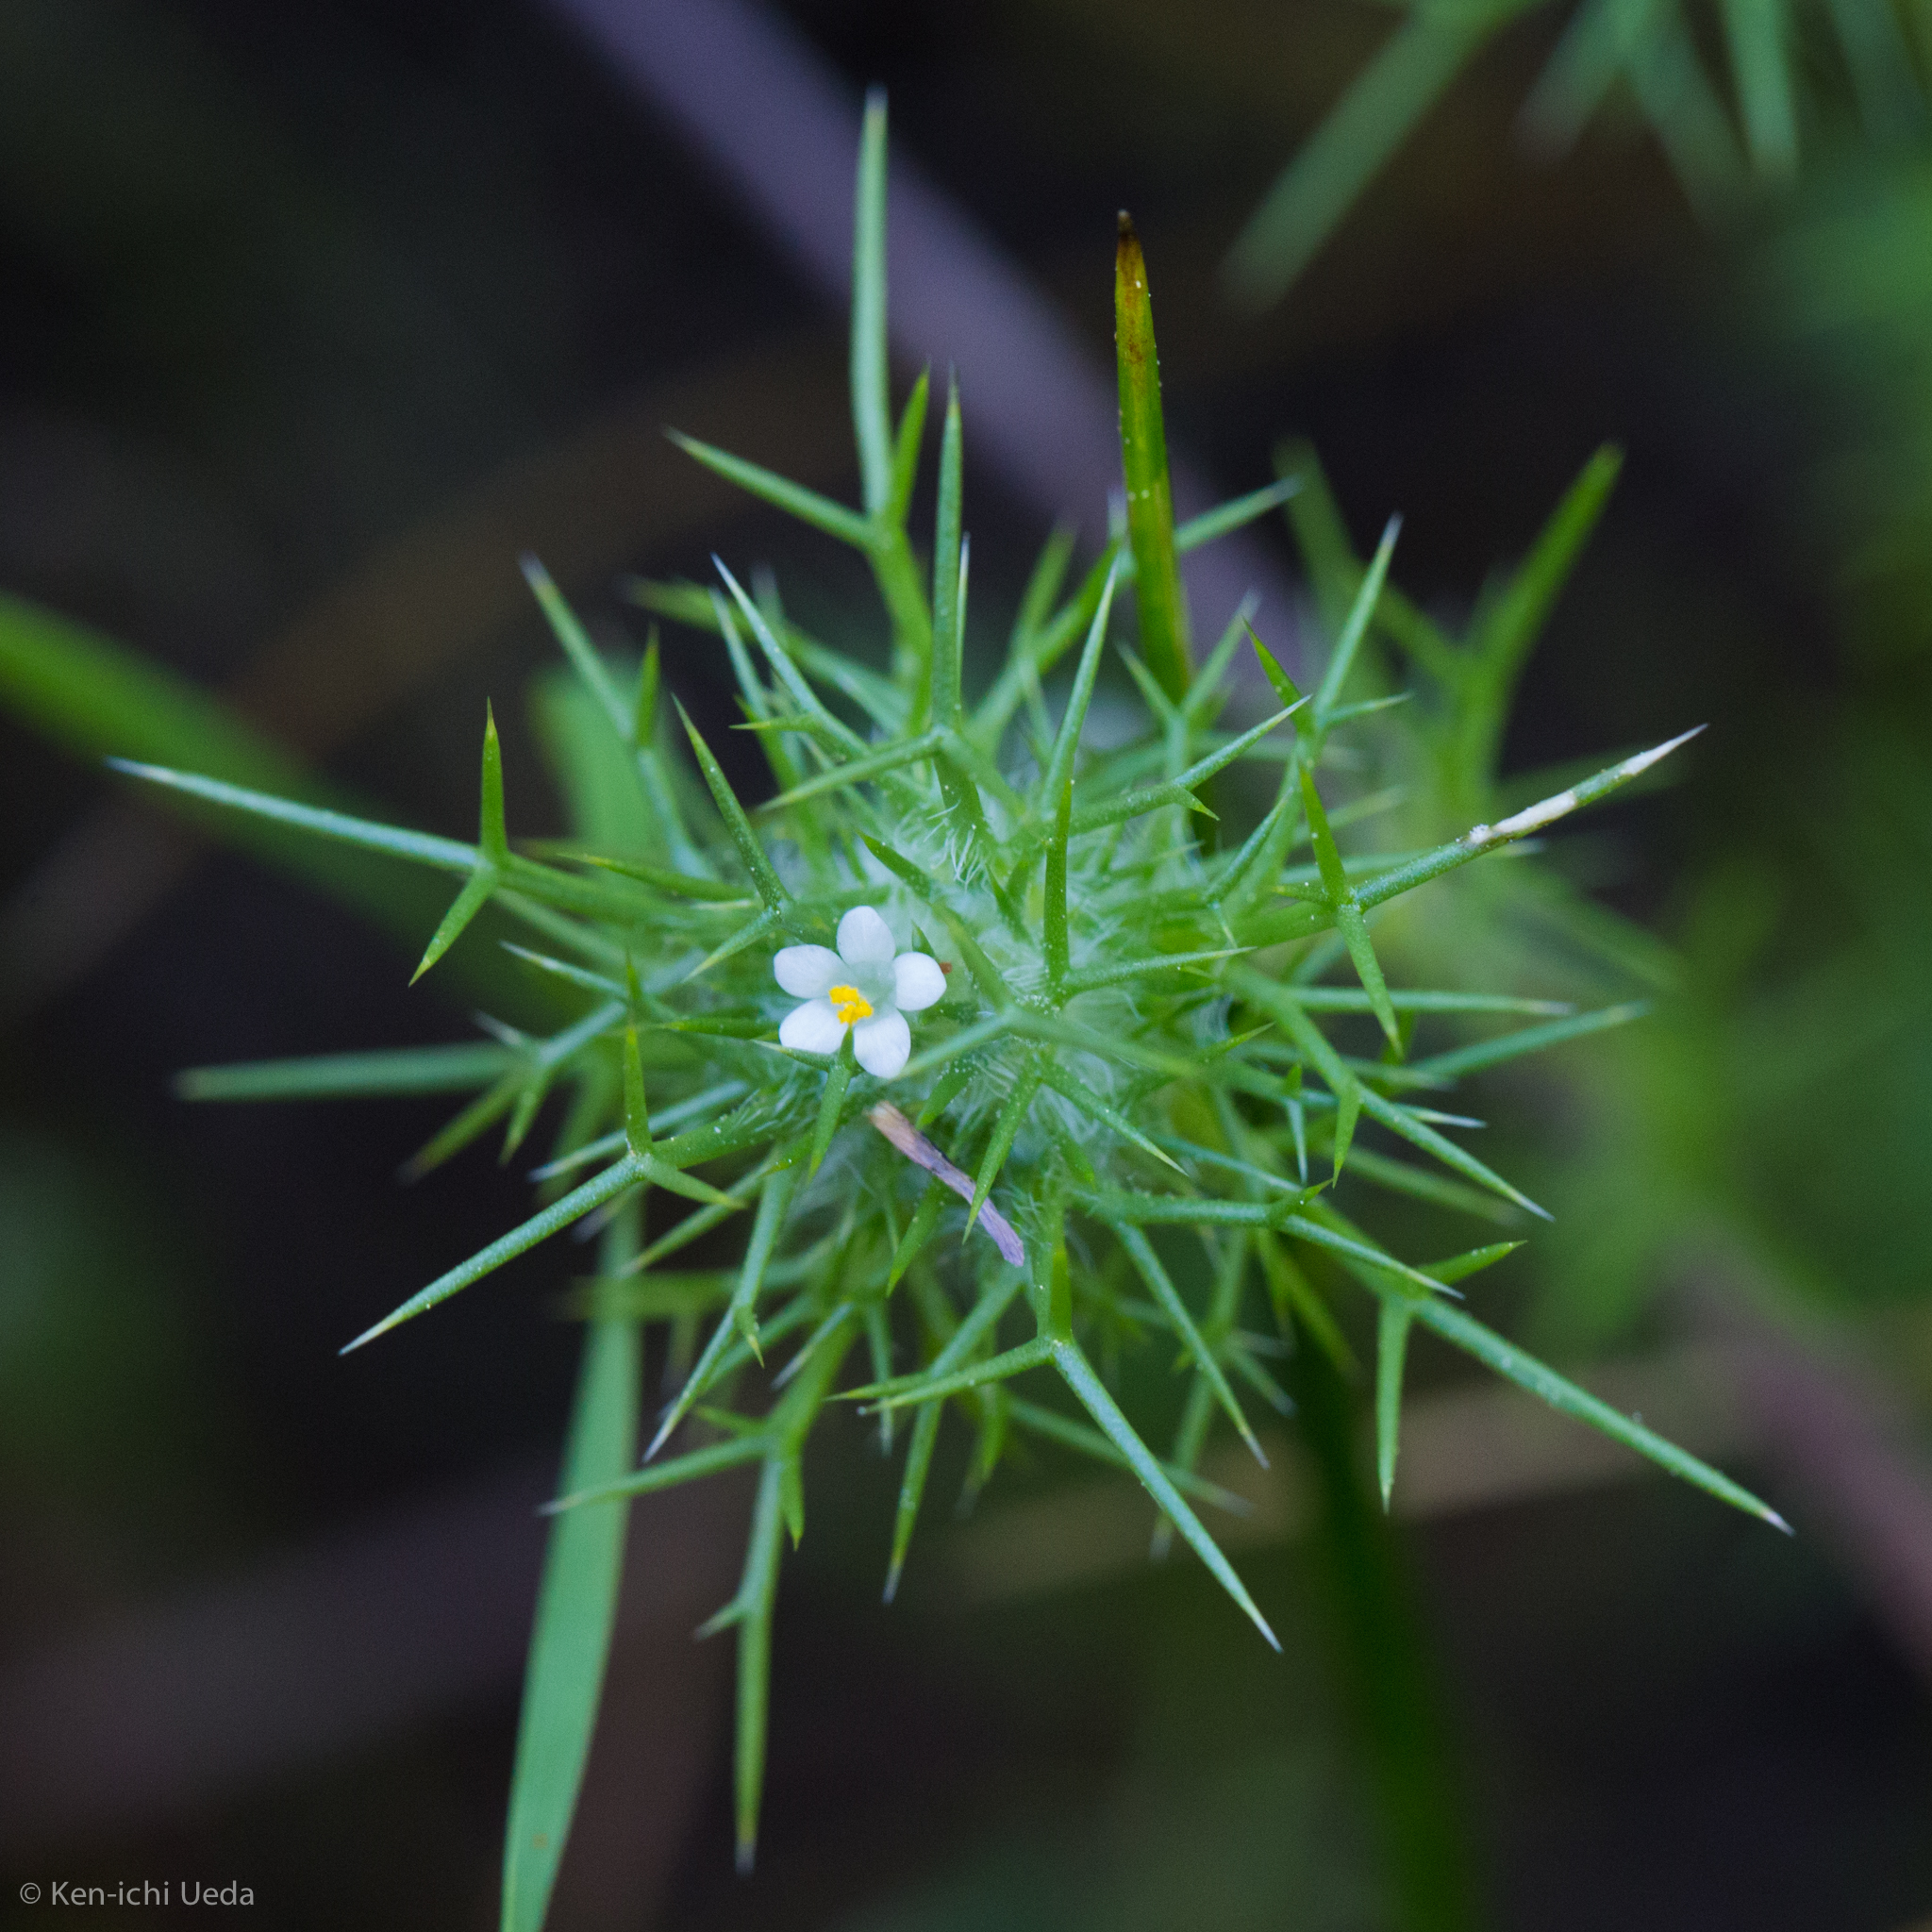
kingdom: Plantae
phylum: Tracheophyta
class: Magnoliopsida
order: Ericales
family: Polemoniaceae
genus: Navarretia
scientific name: Navarretia intertexta
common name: Needle-leaved navarretia
